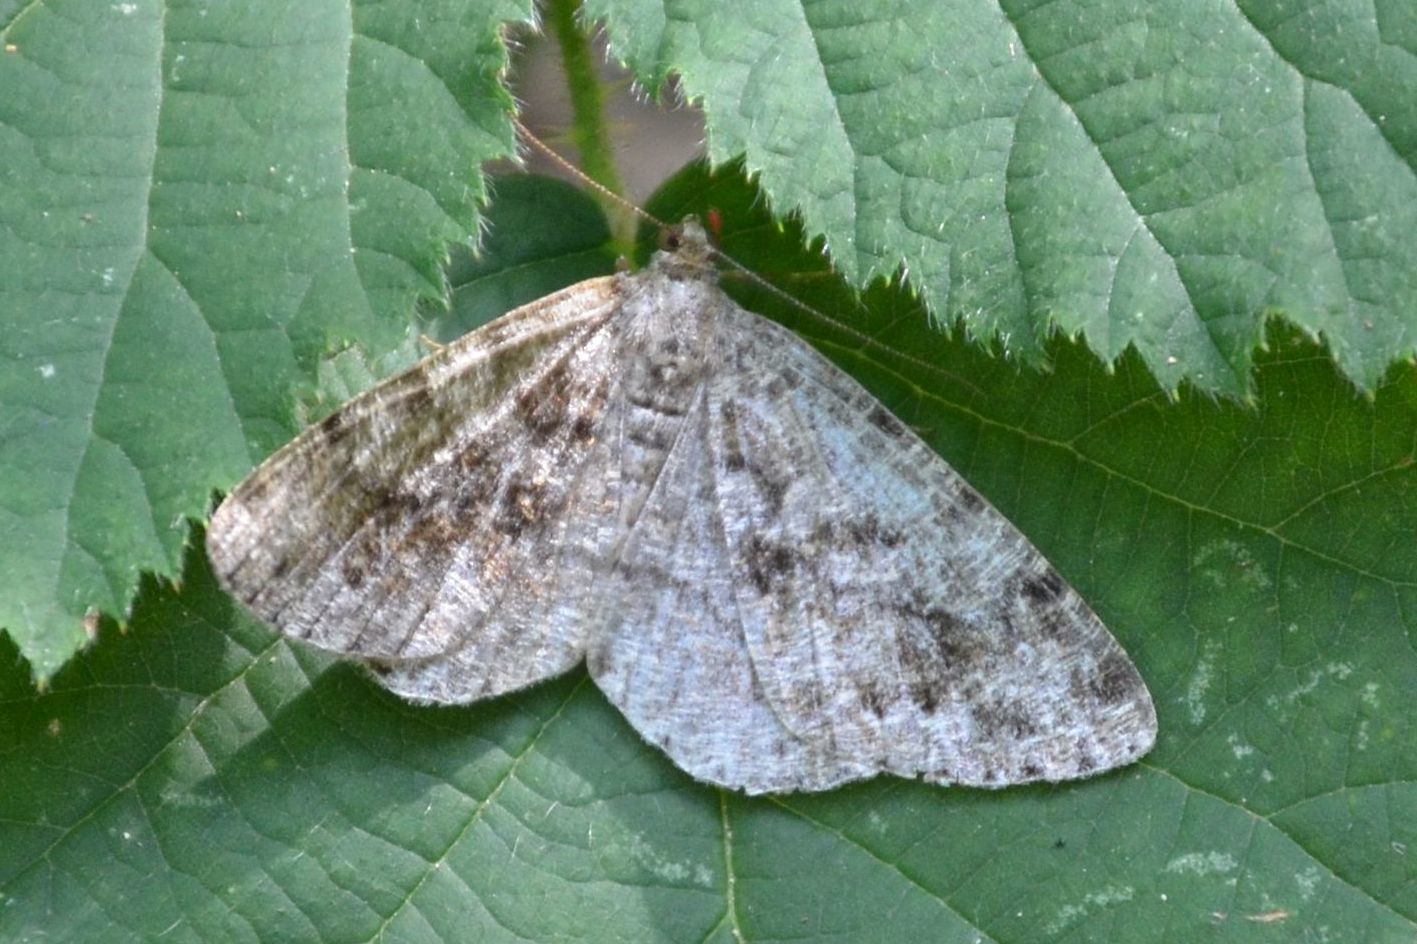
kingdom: Animalia
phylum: Arthropoda
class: Insecta
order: Lepidoptera
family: Geometridae
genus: Deileptenia
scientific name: Deileptenia ribeata
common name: Satin beauty
